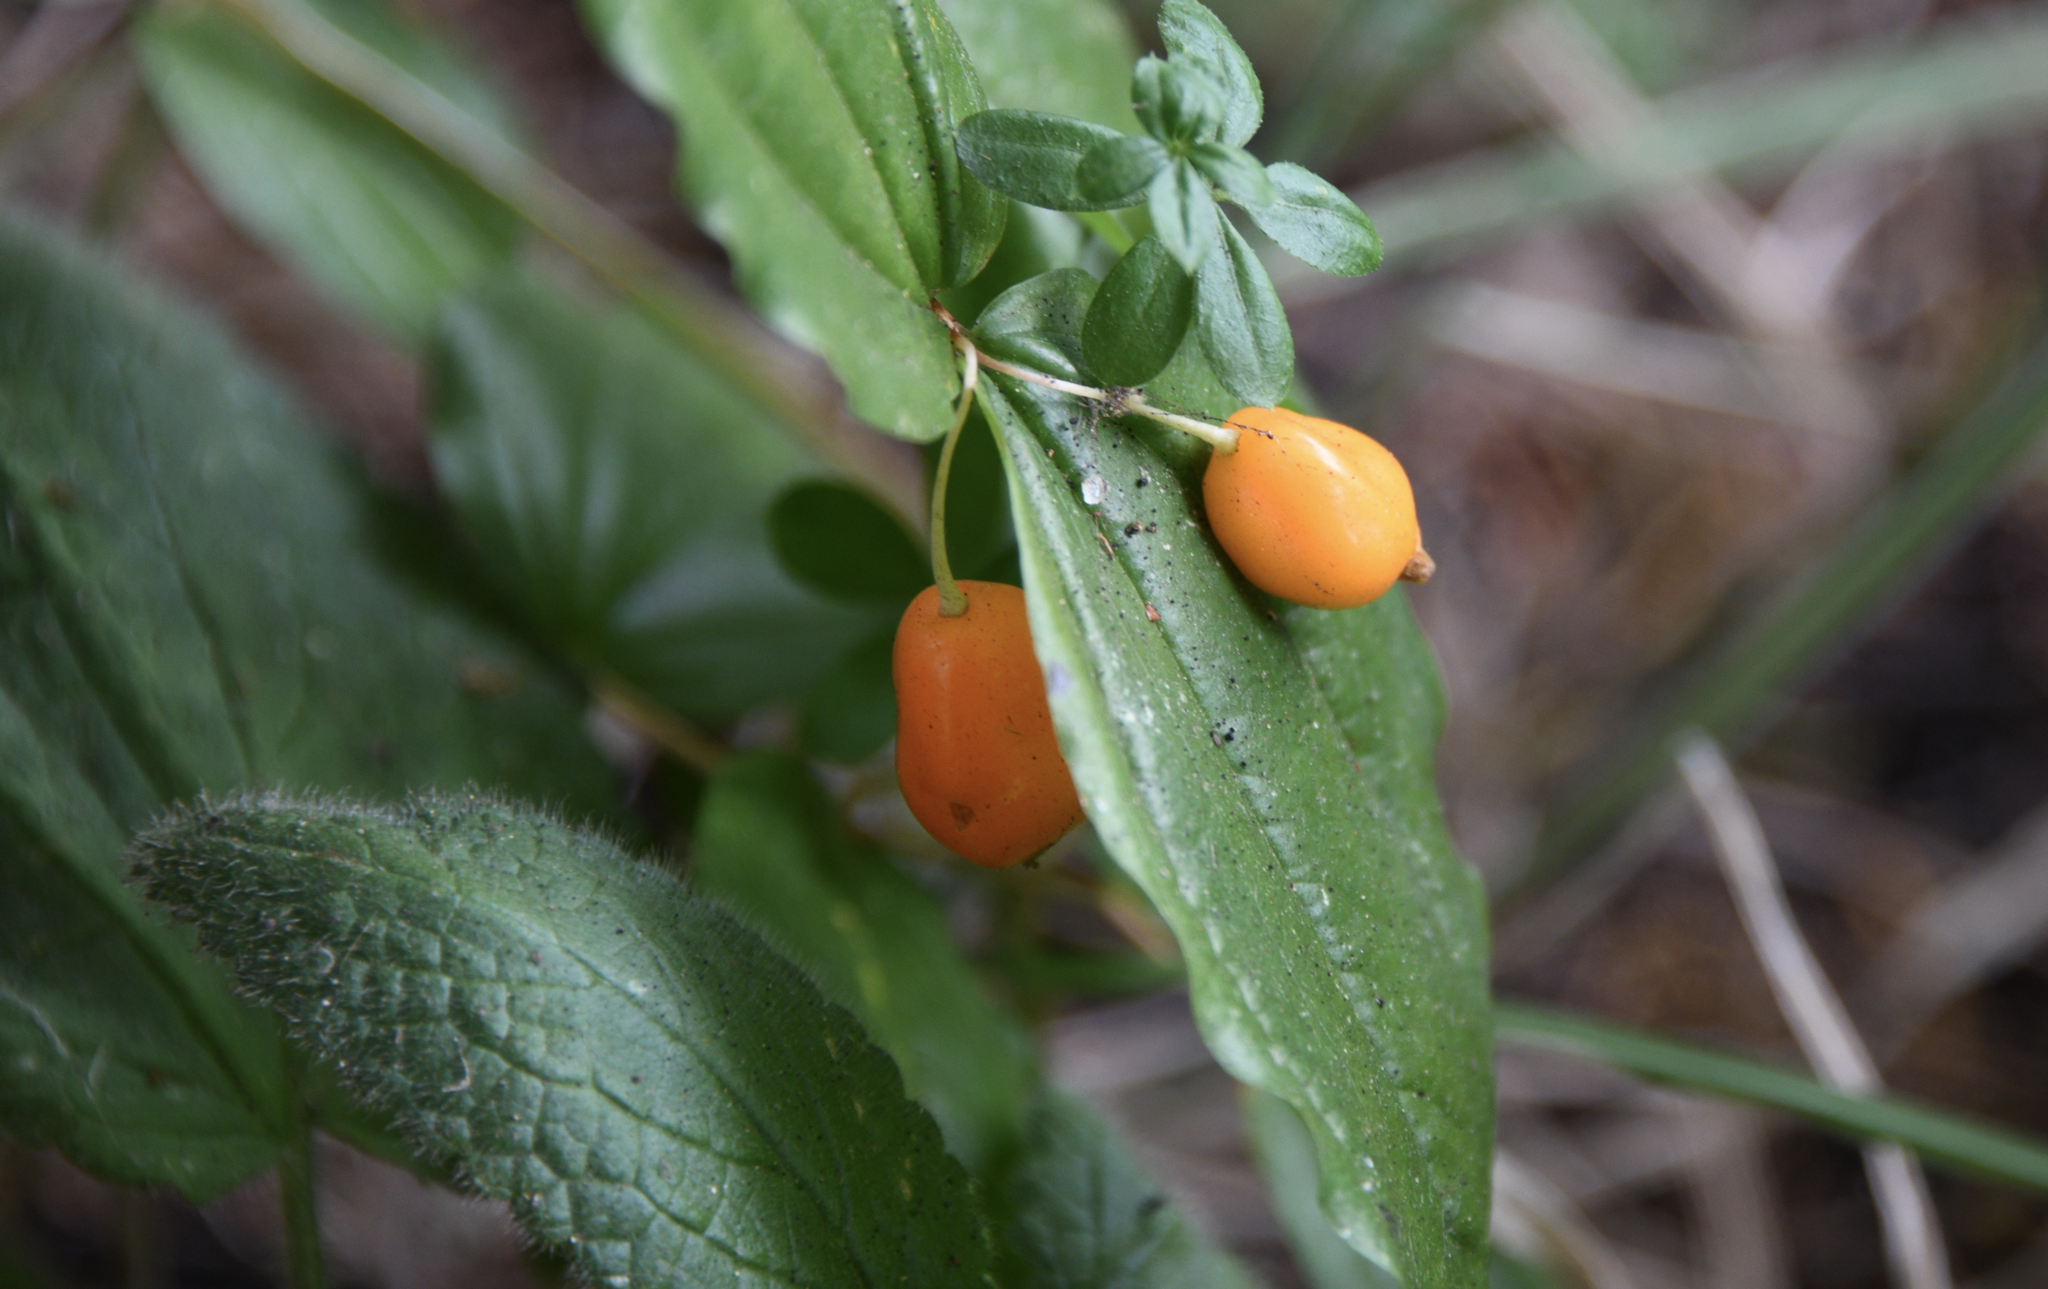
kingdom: Plantae
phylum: Tracheophyta
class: Liliopsida
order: Liliales
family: Liliaceae
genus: Prosartes
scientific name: Prosartes smithii
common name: Fairy-lantern
